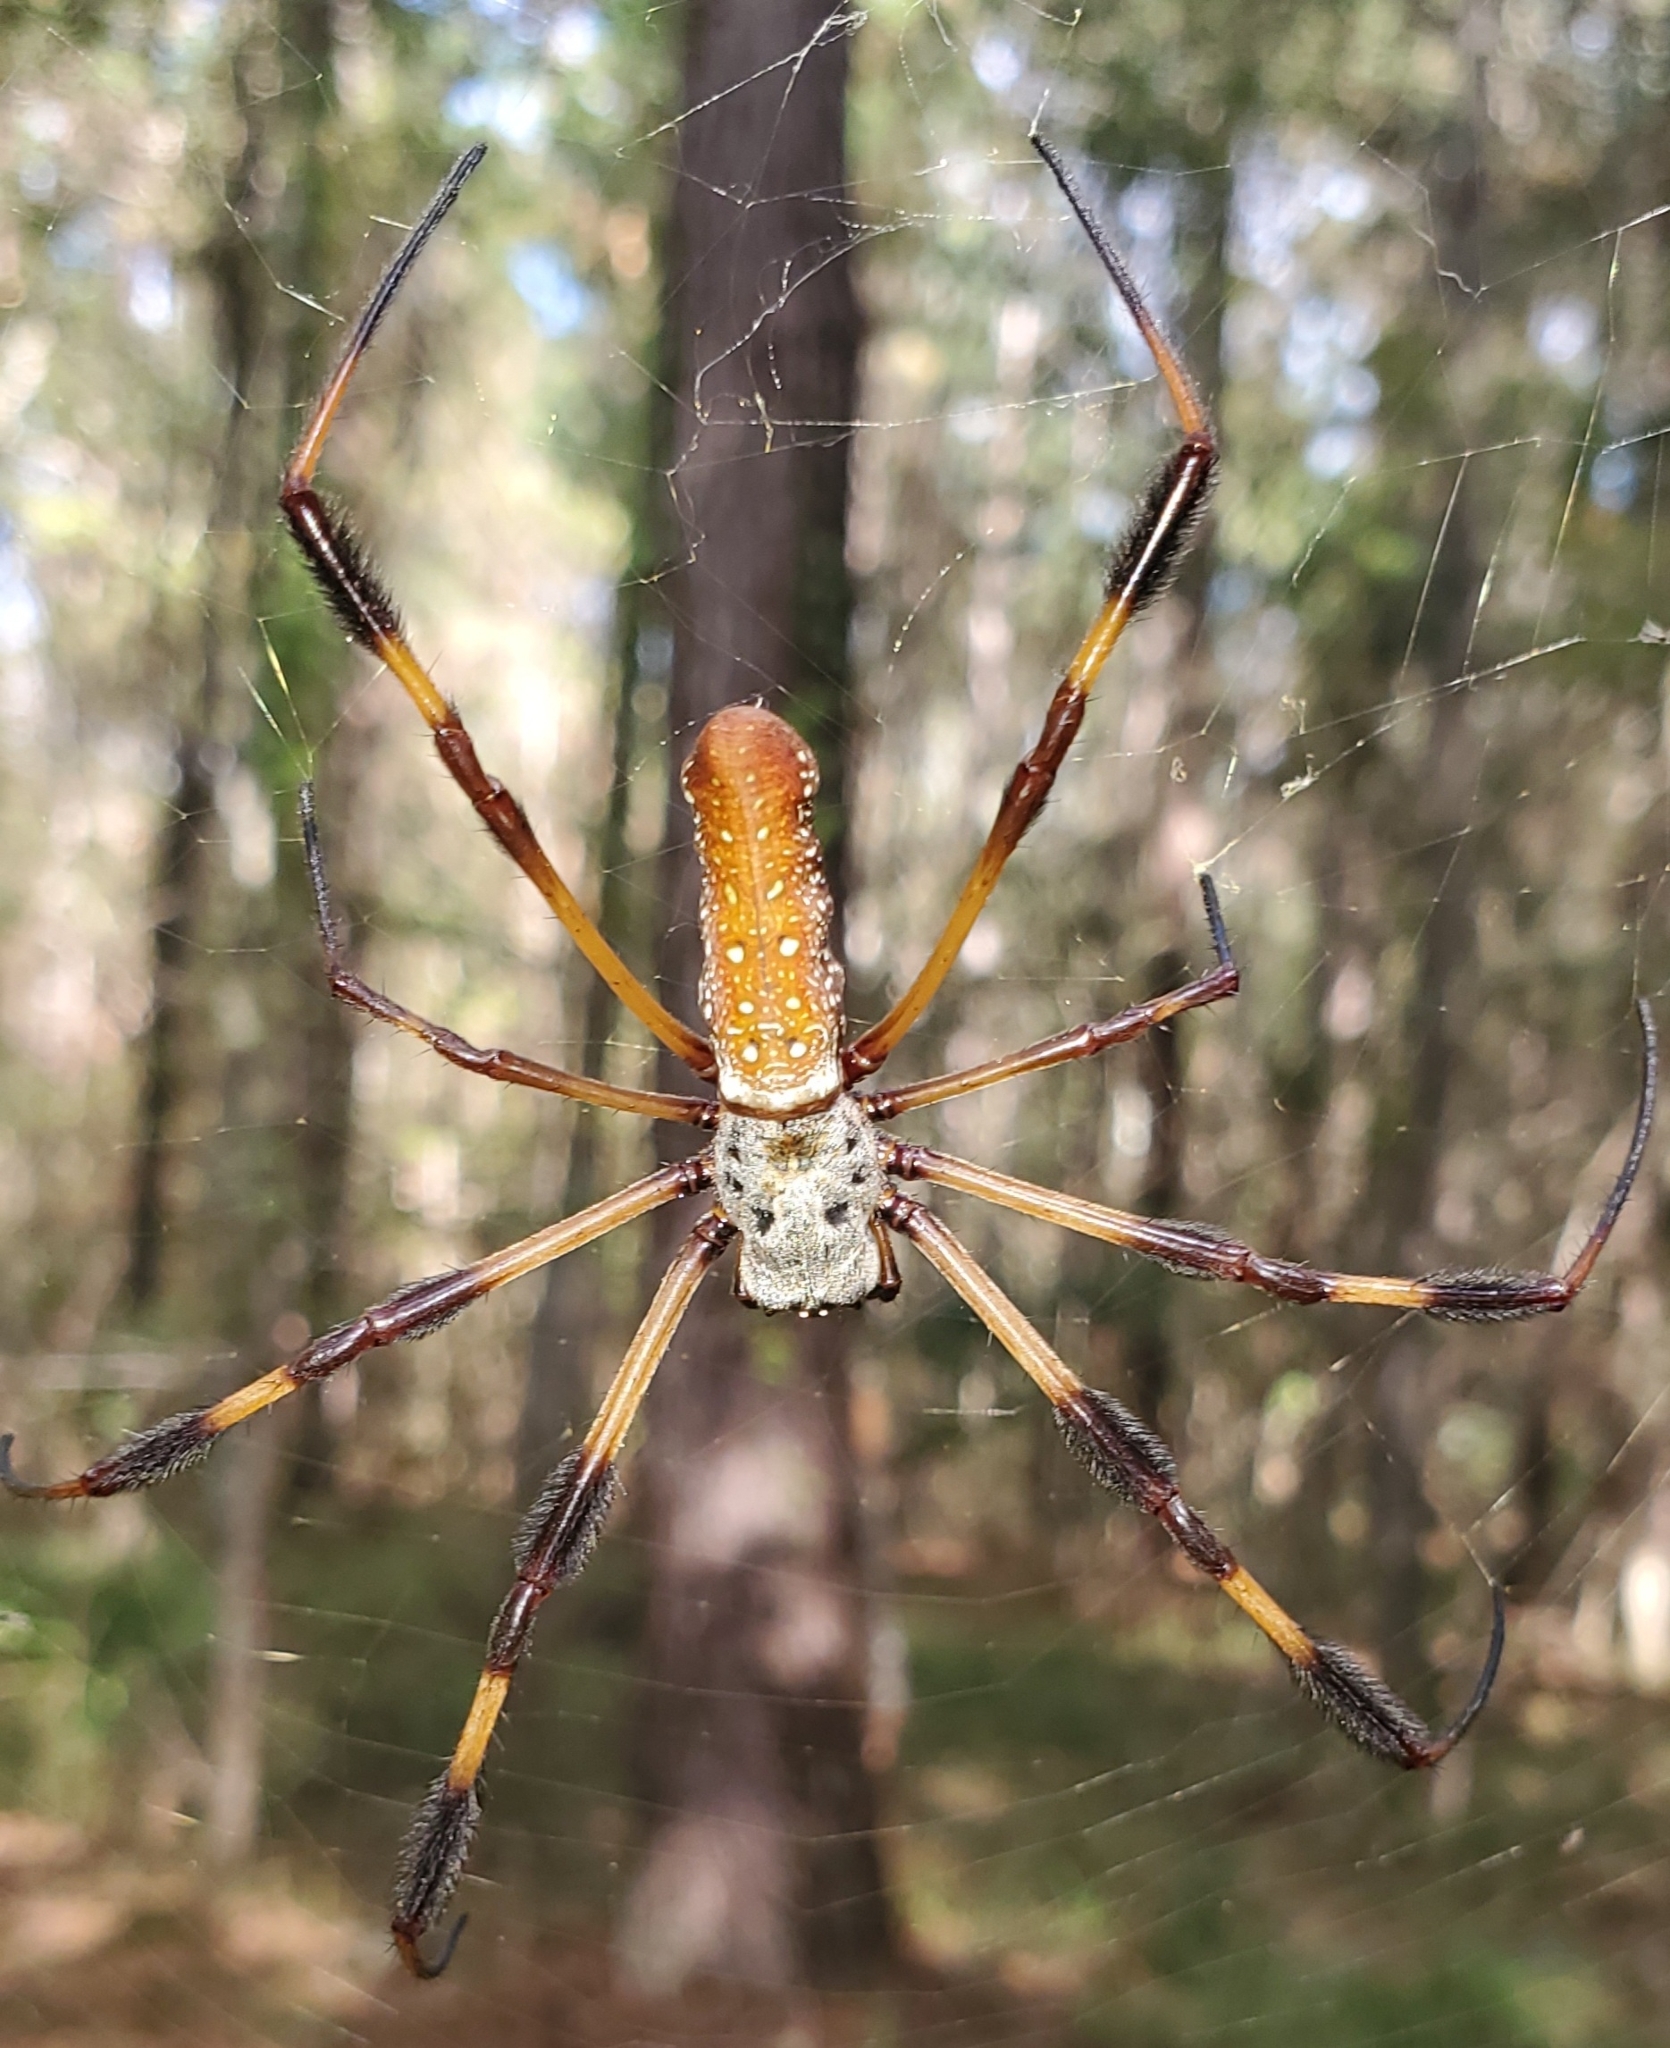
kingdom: Animalia
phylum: Arthropoda
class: Arachnida
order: Araneae
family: Araneidae
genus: Trichonephila
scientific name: Trichonephila clavipes
